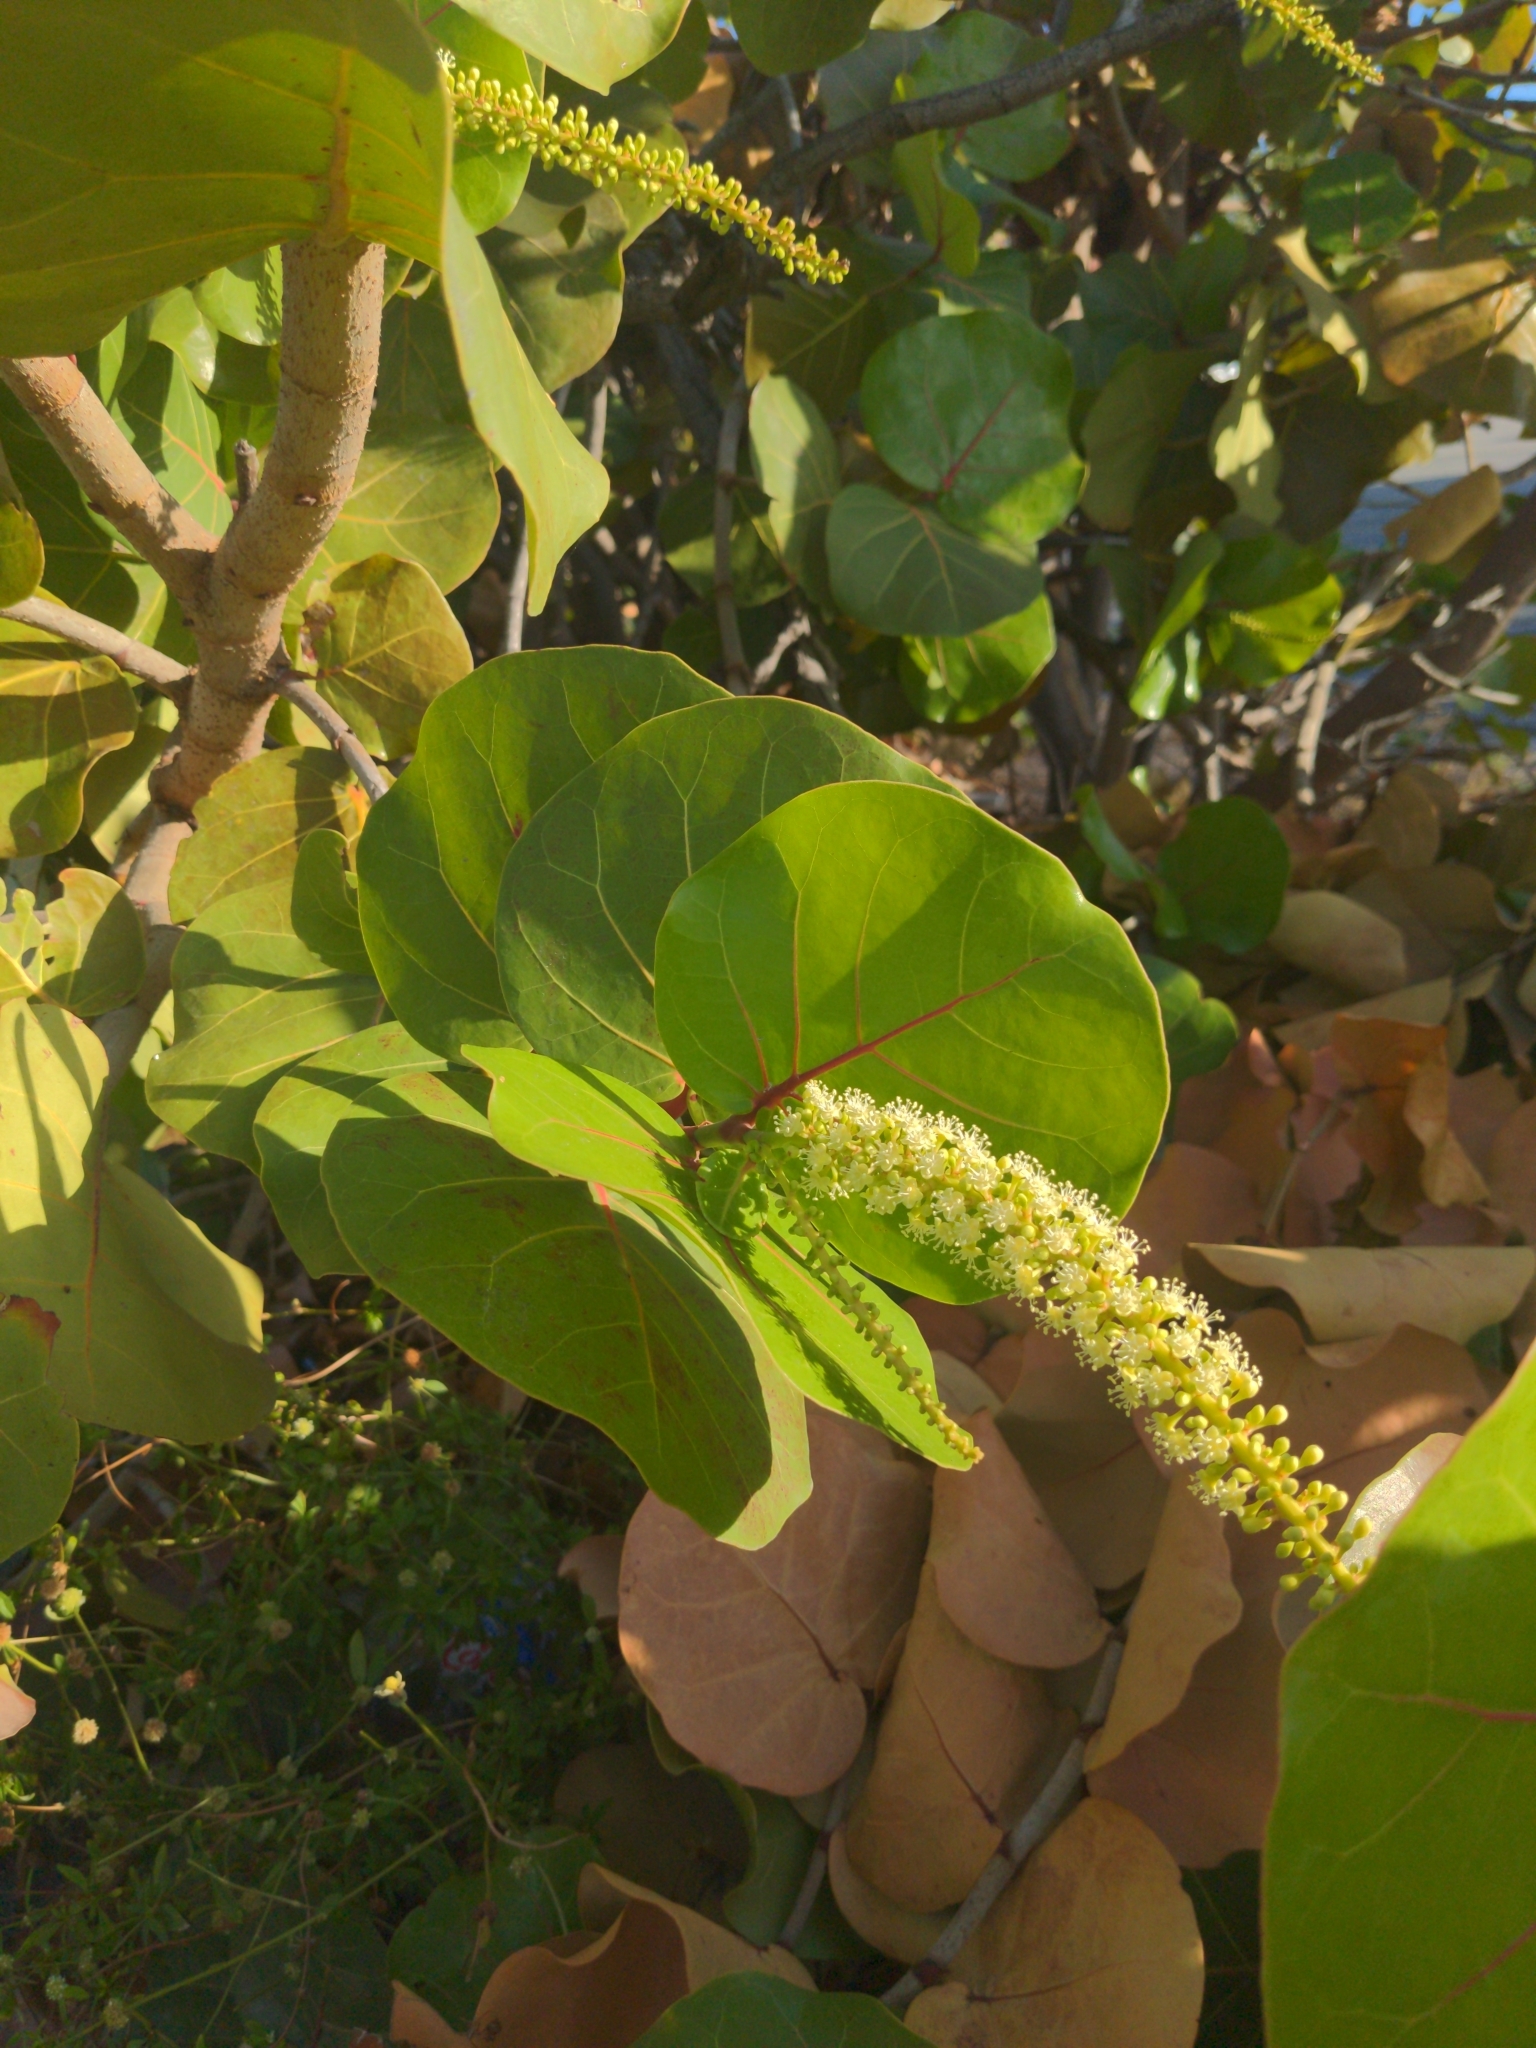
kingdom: Plantae
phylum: Tracheophyta
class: Magnoliopsida
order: Caryophyllales
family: Polygonaceae
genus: Coccoloba
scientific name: Coccoloba uvifera
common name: Seagrape
